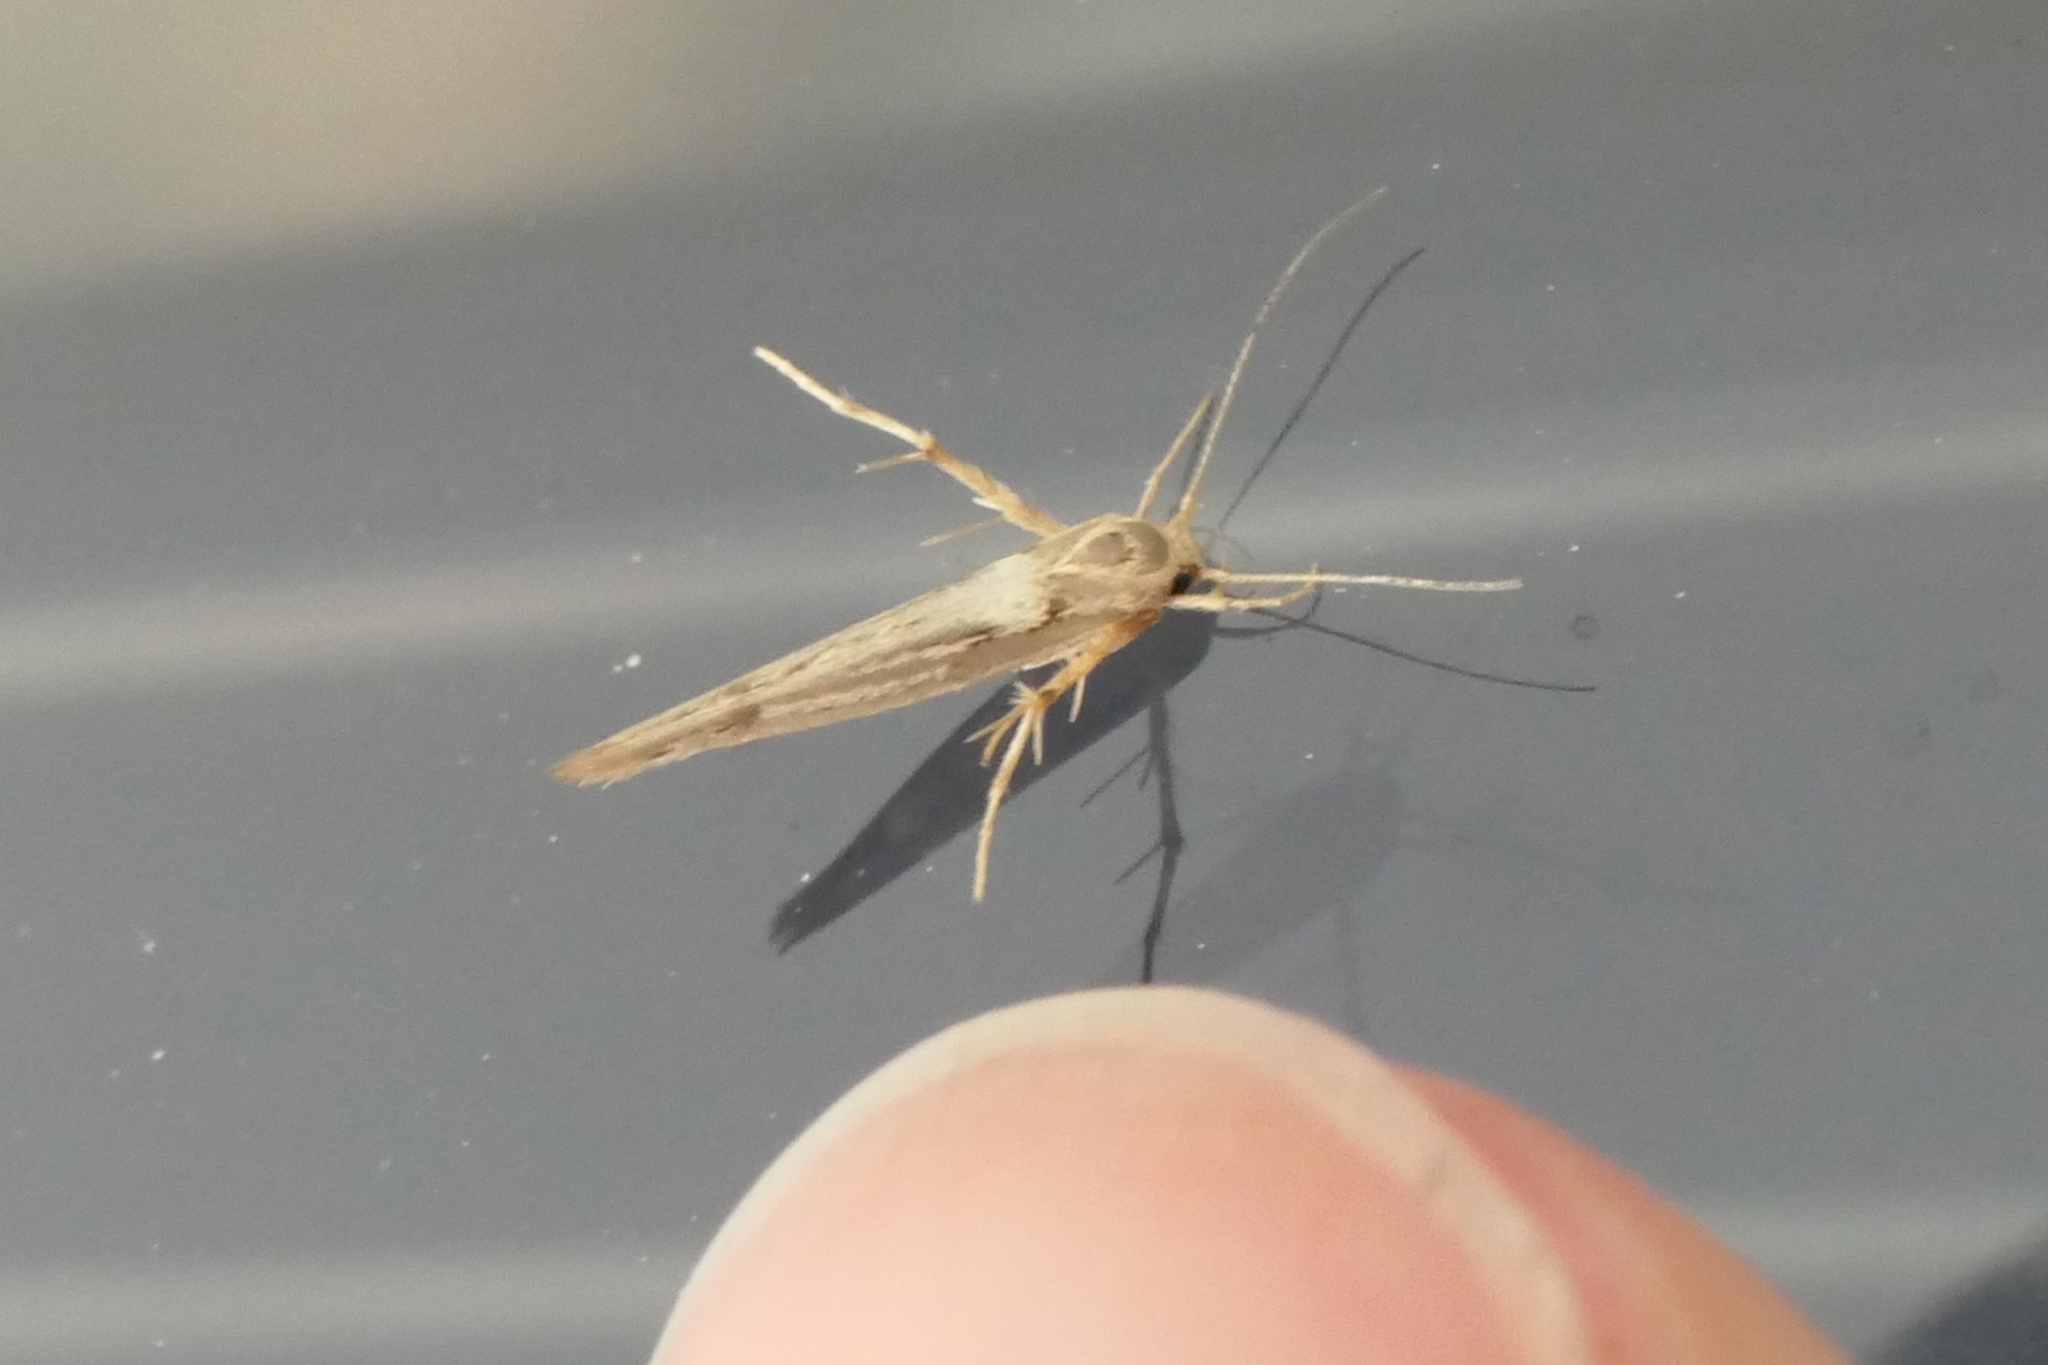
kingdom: Animalia
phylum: Arthropoda
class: Insecta
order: Lepidoptera
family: Stathmopodidae
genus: Stathmopoda
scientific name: Stathmopoda plumbiflua
